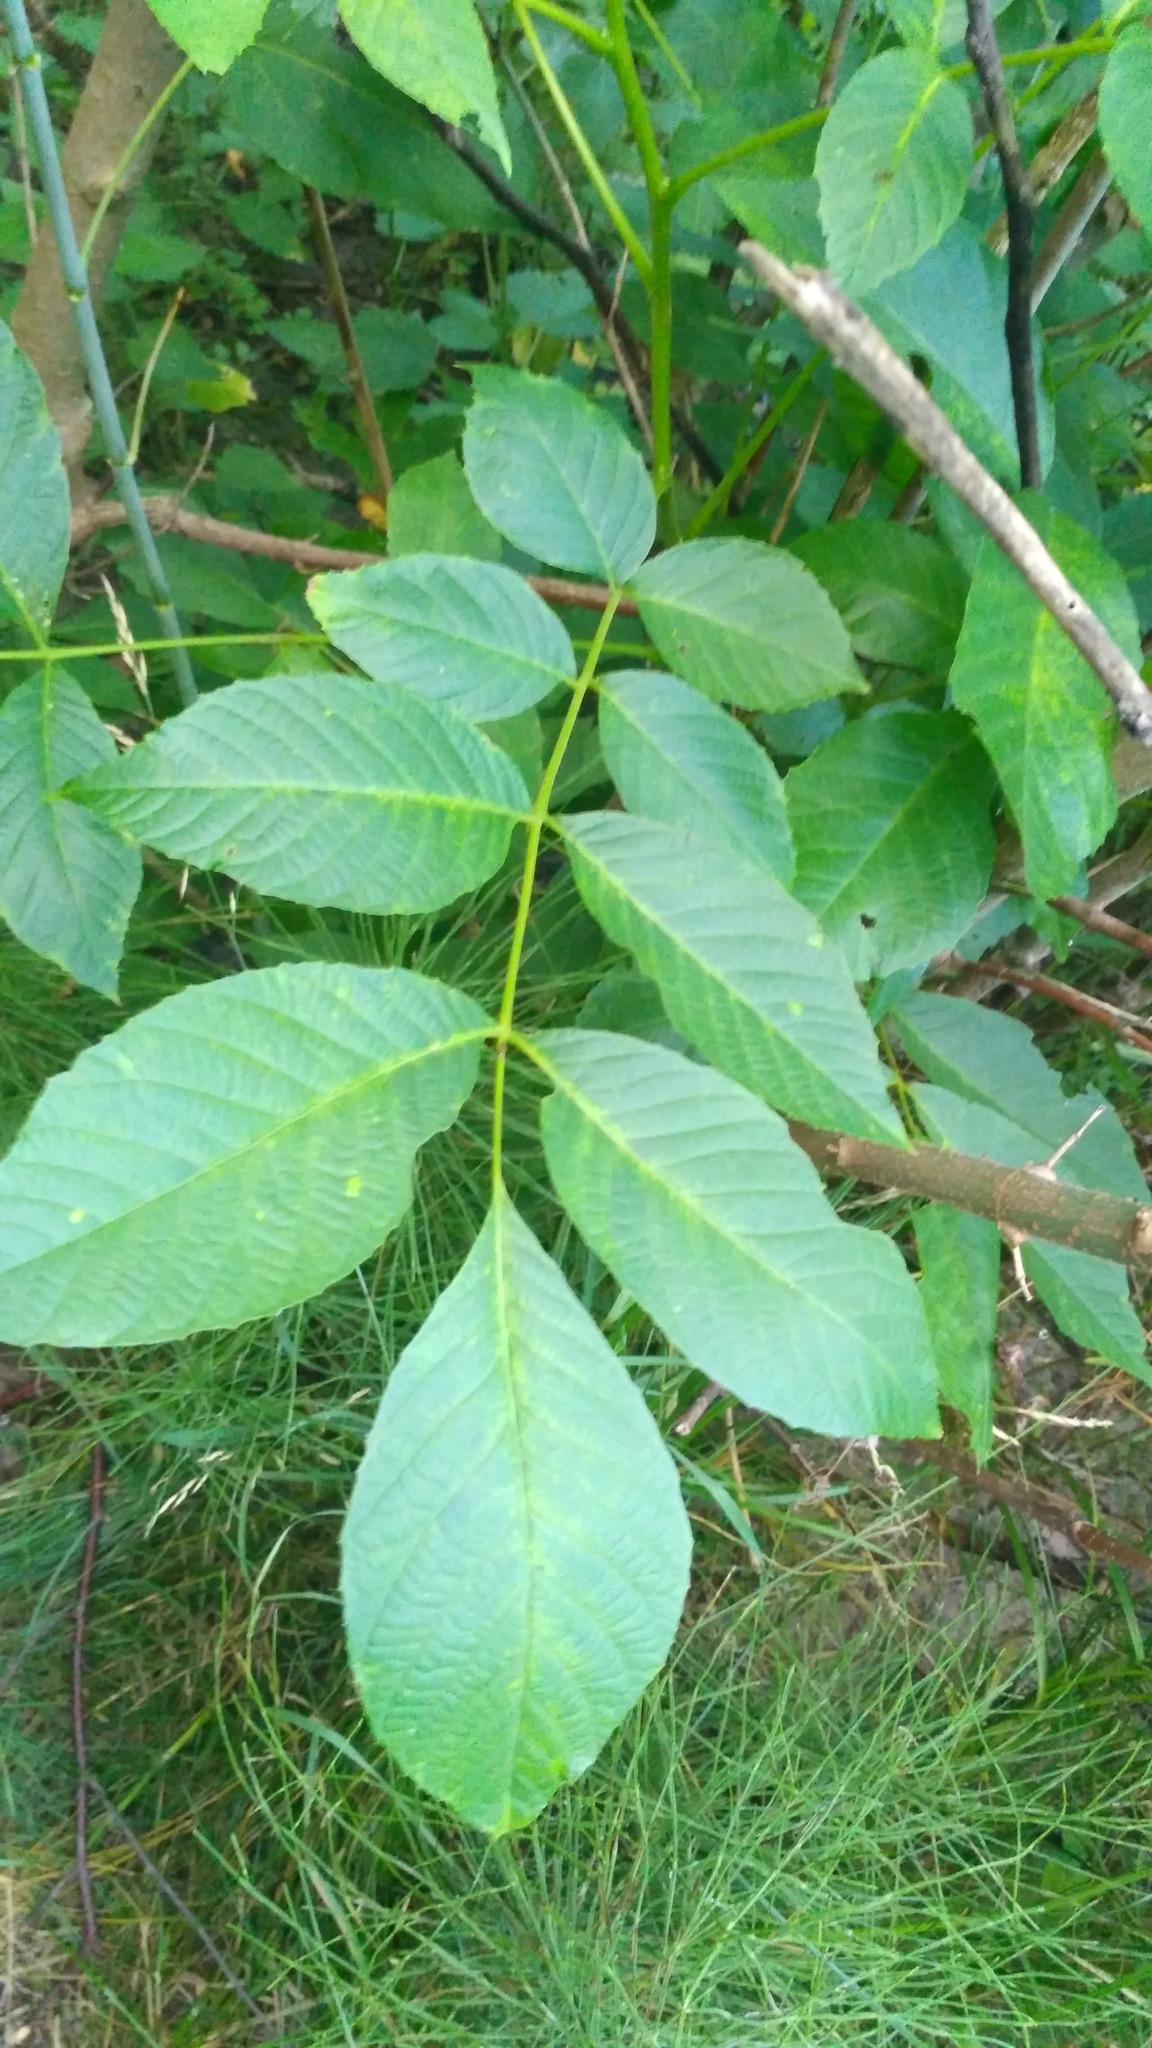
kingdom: Plantae
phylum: Tracheophyta
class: Magnoliopsida
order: Fagales
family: Juglandaceae
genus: Juglans
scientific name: Juglans regia
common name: Walnut
